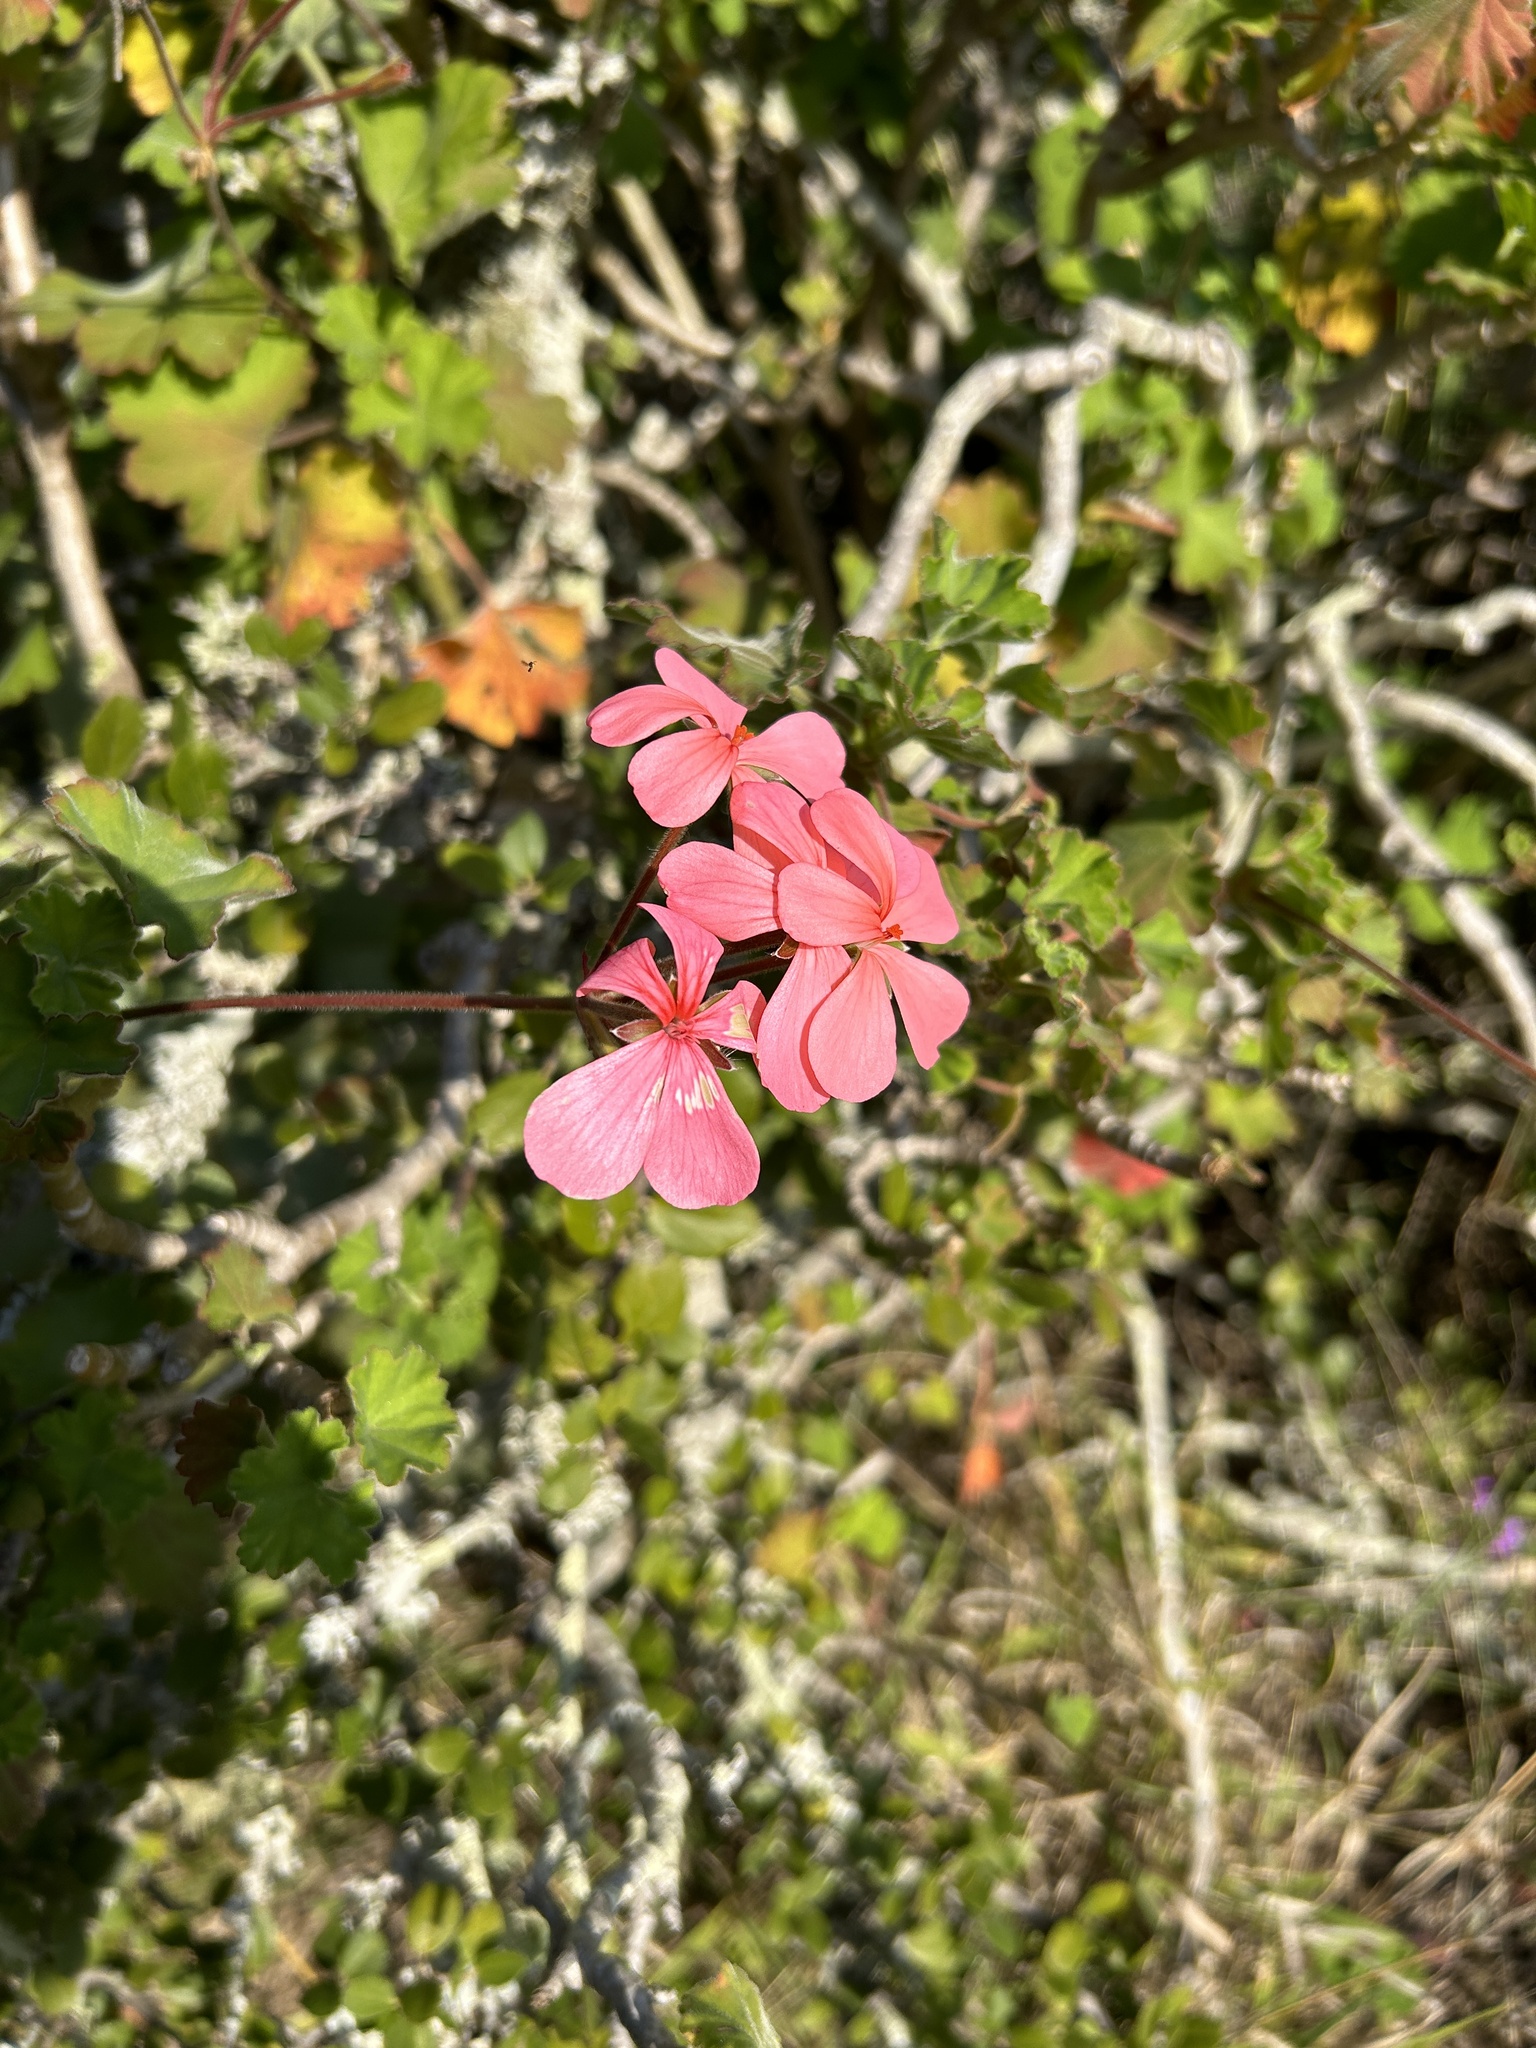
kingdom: Plantae
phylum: Tracheophyta
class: Magnoliopsida
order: Geraniales
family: Geraniaceae
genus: Pelargonium
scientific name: Pelargonium inquinans
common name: Scarlet geranium
